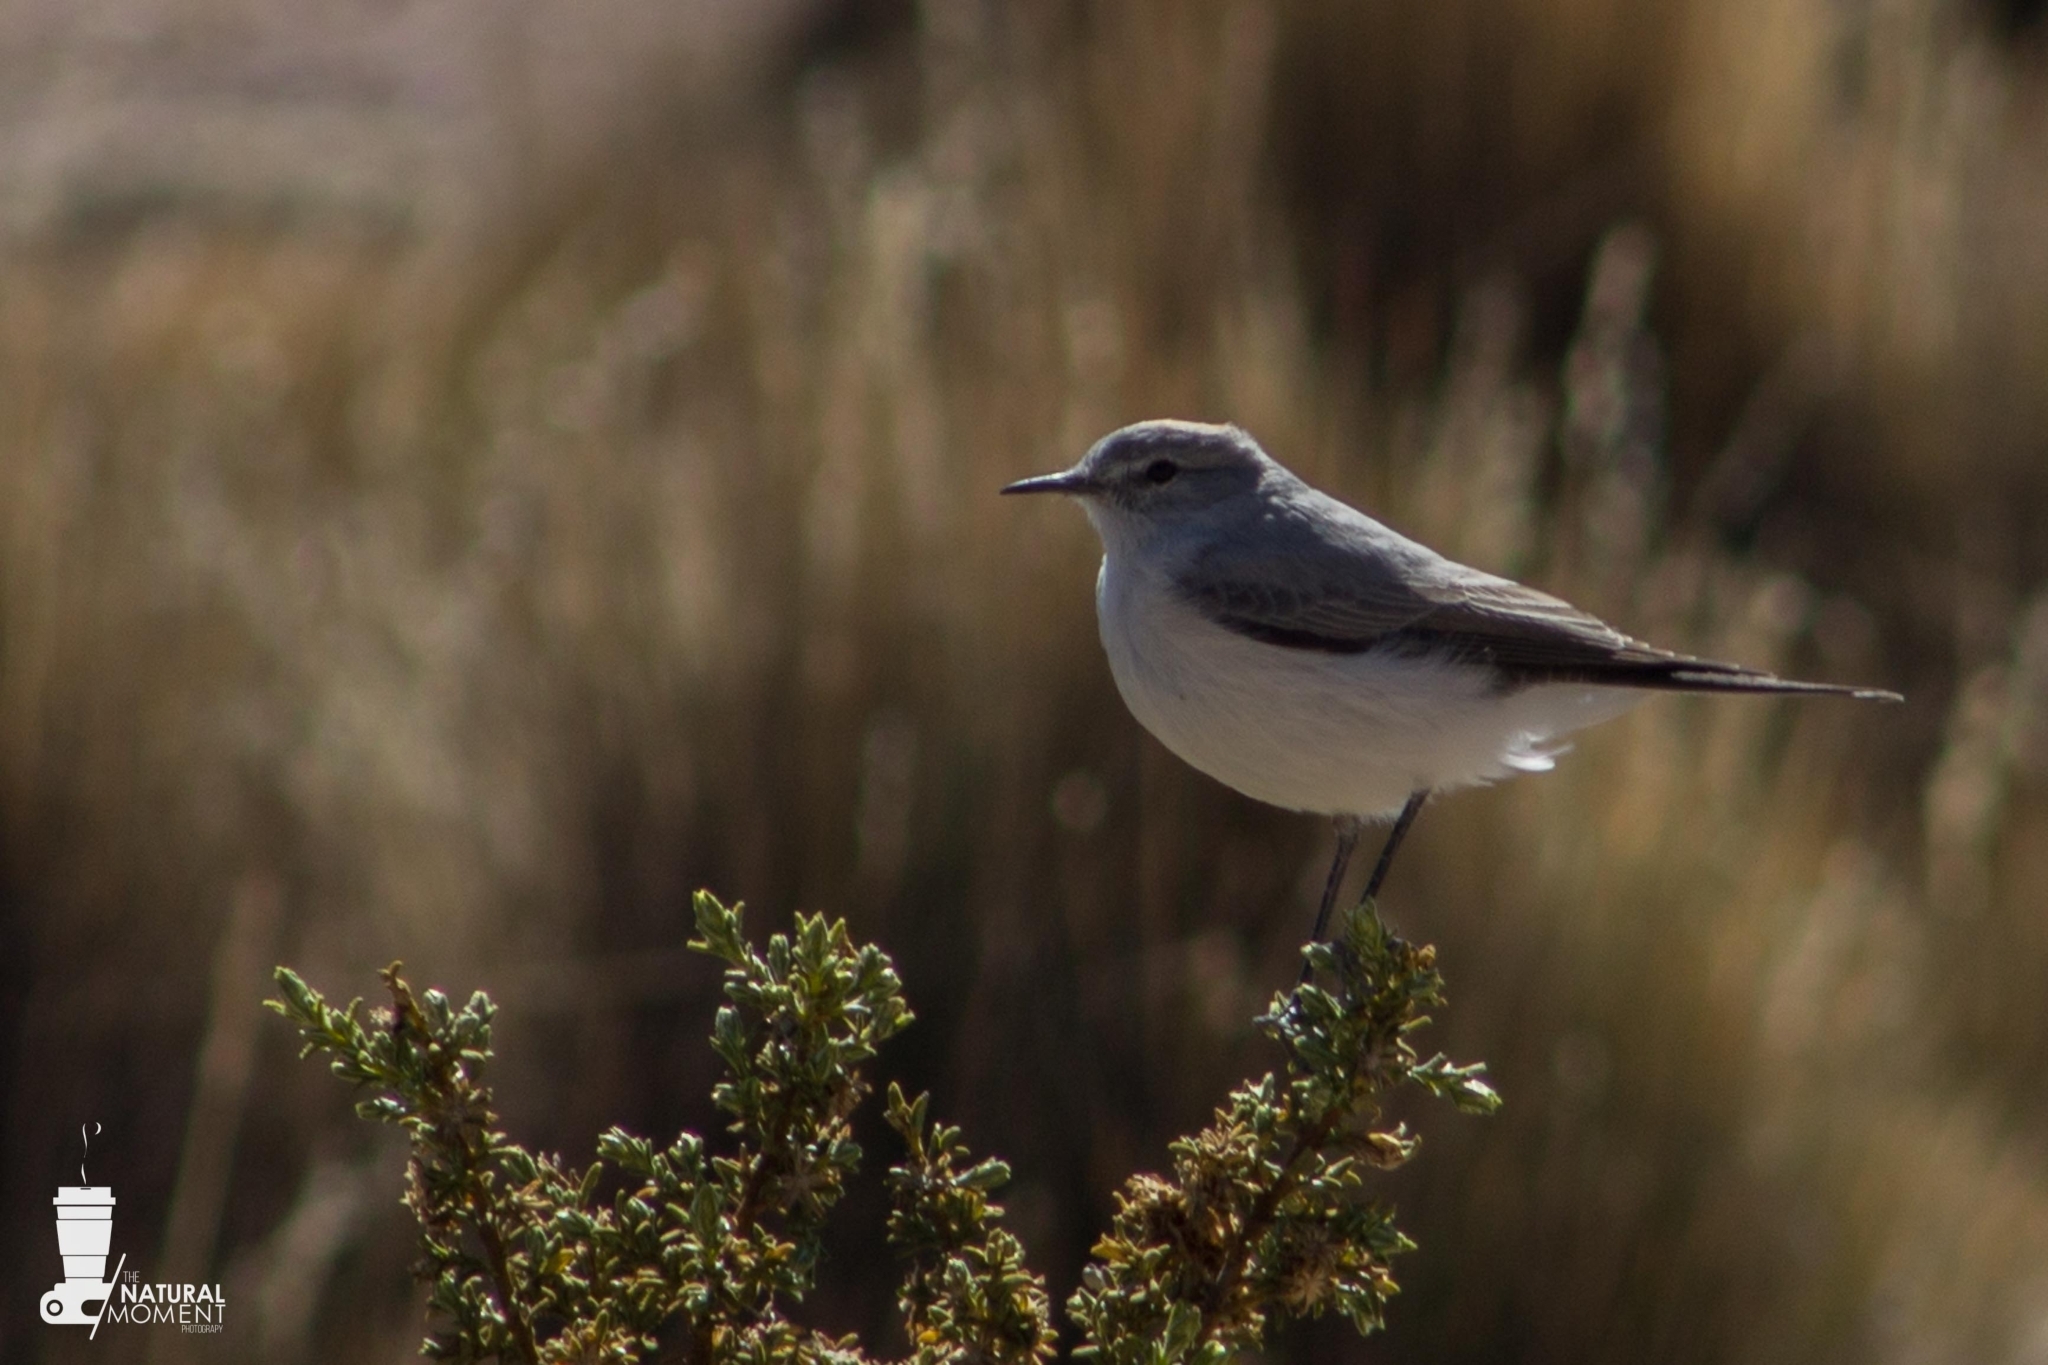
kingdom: Animalia
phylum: Chordata
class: Aves
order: Passeriformes
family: Tyrannidae
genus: Muscisaxicola
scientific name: Muscisaxicola rufivertex
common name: Rufous-naped ground tyrant
